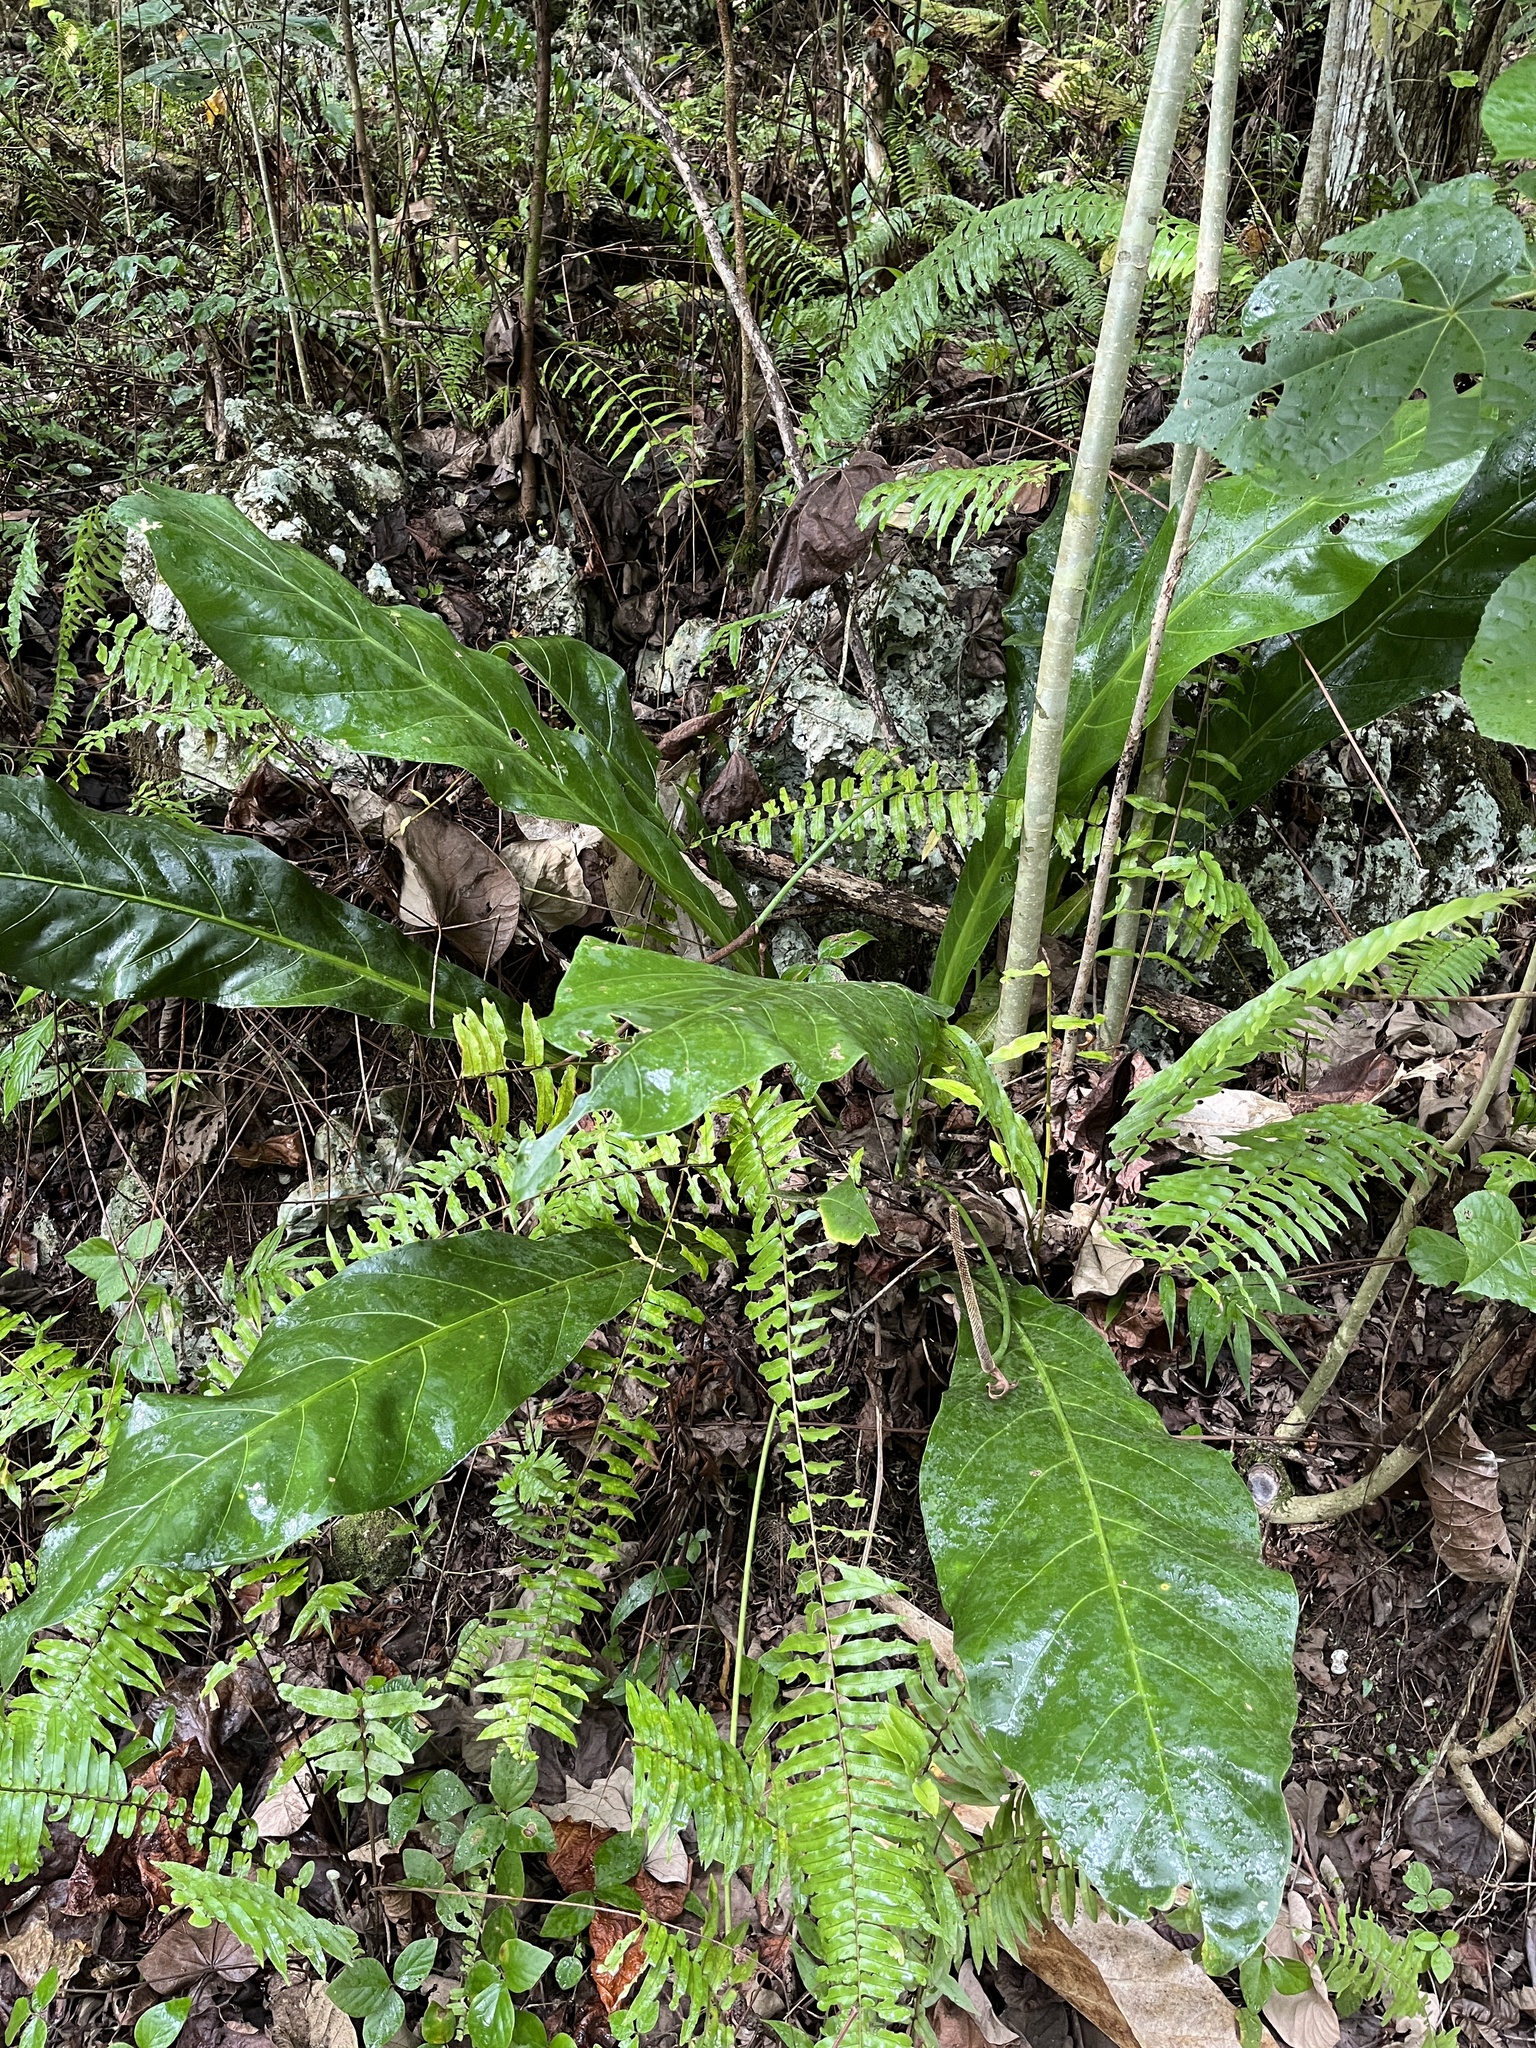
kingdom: Plantae
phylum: Tracheophyta
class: Liliopsida
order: Alismatales
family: Araceae
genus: Anthurium
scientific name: Anthurium crenatum
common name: Scalloped laceleaf
